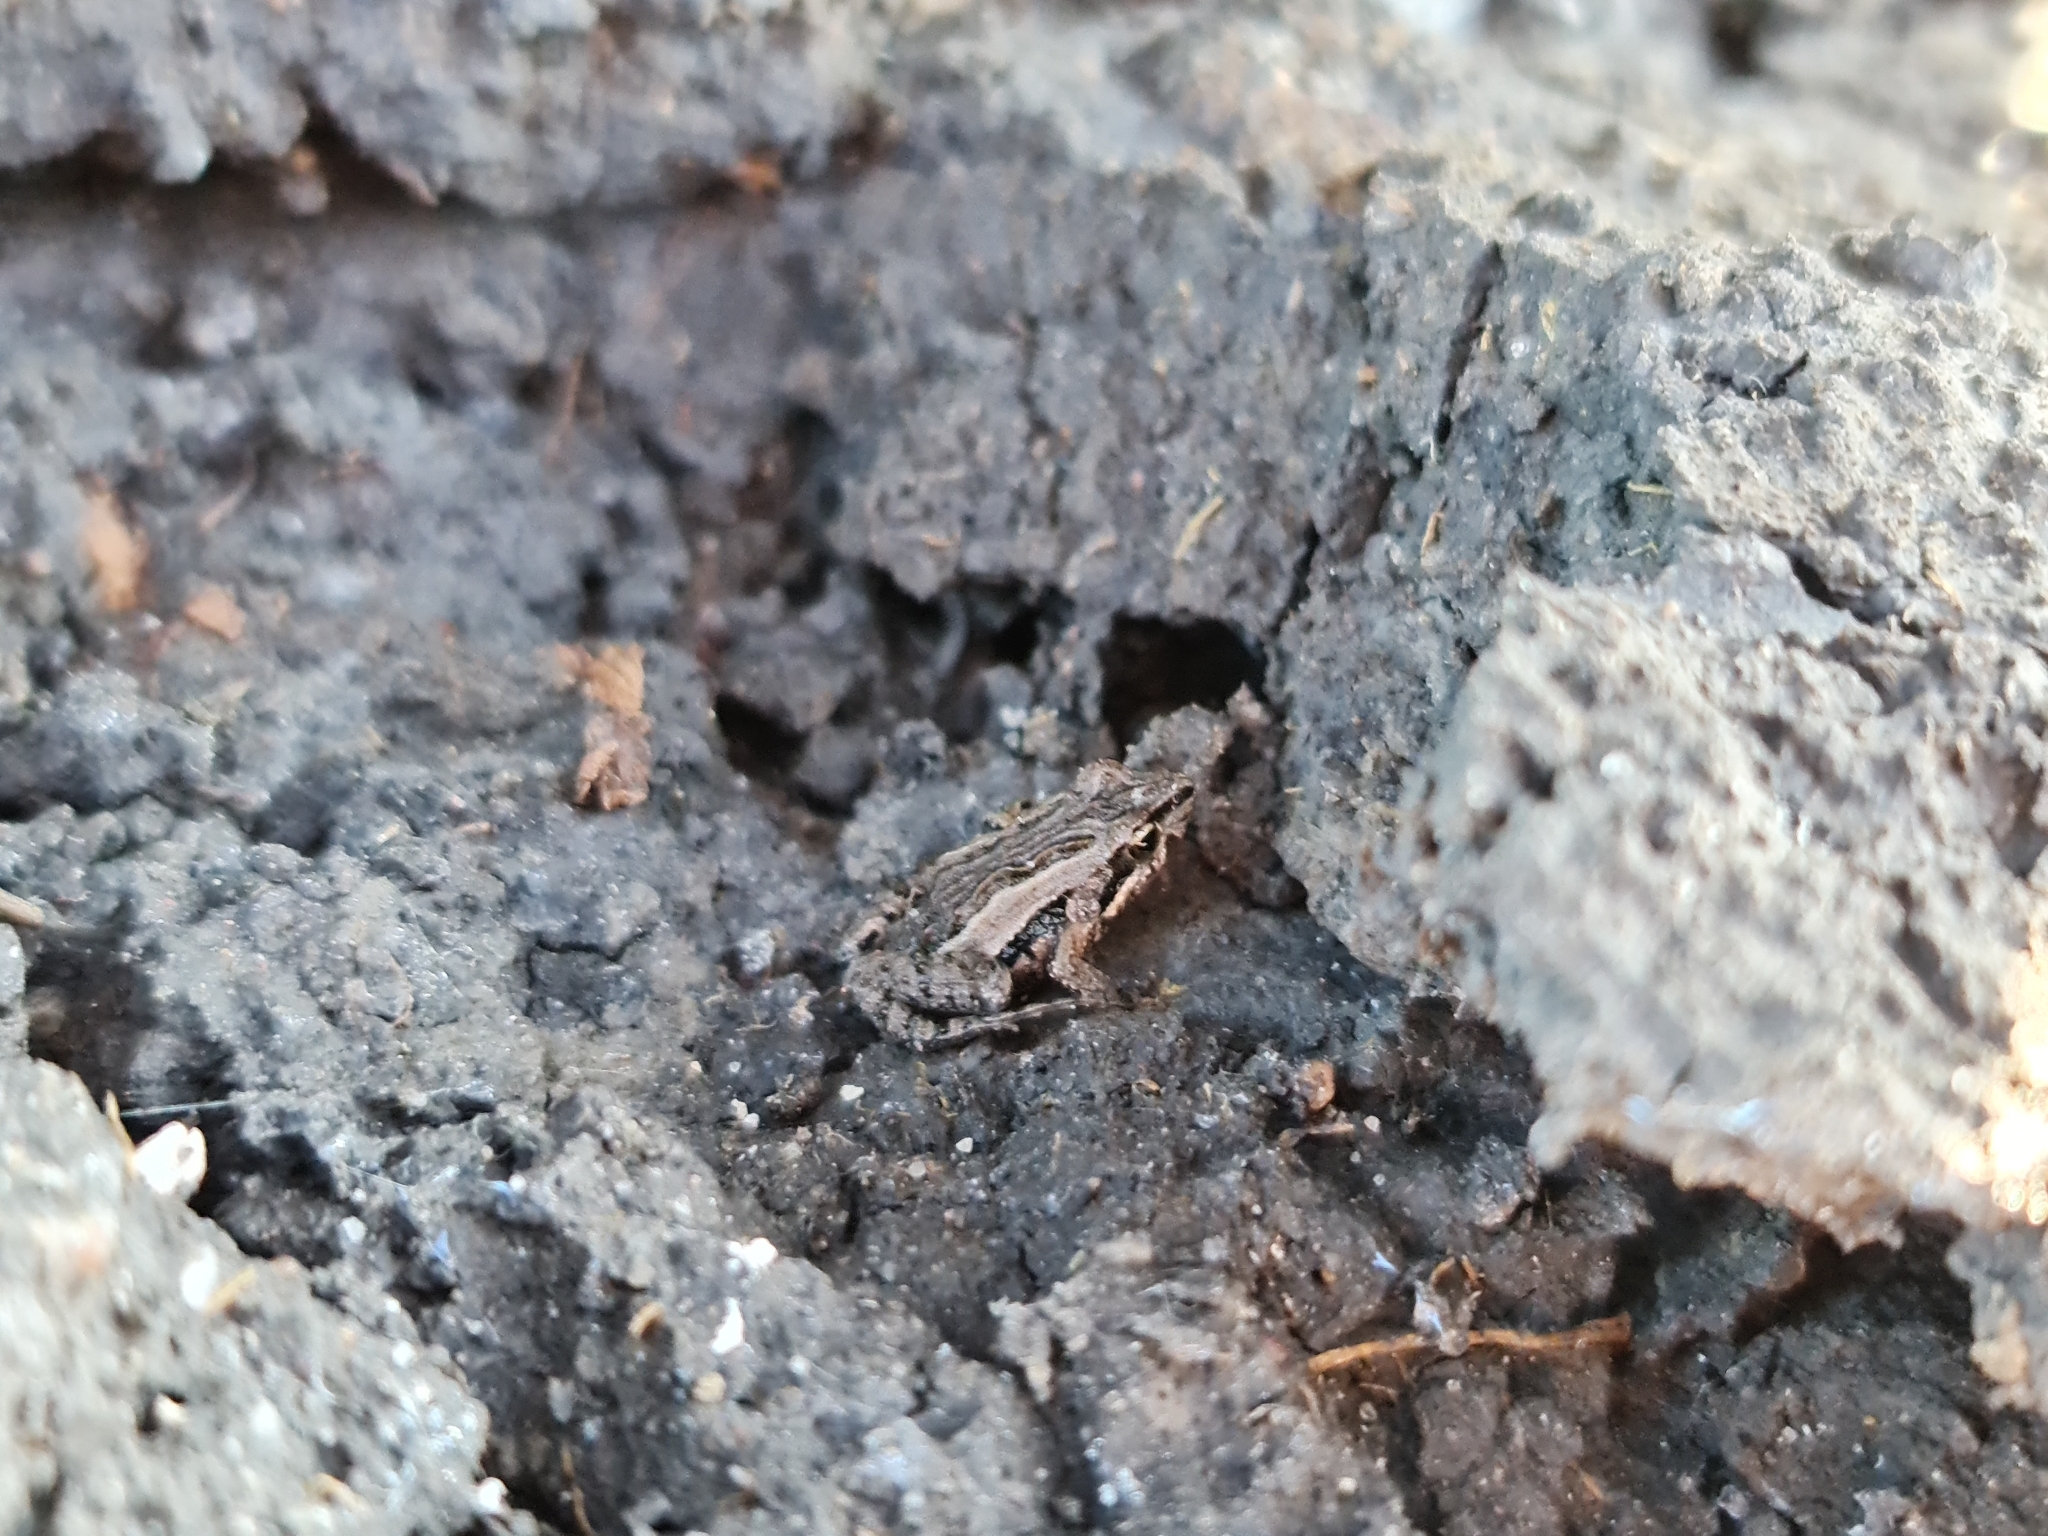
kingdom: Animalia
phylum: Chordata
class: Amphibia
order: Anura
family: Myobatrachidae
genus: Crinia
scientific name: Crinia signifera
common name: Brown froglet
